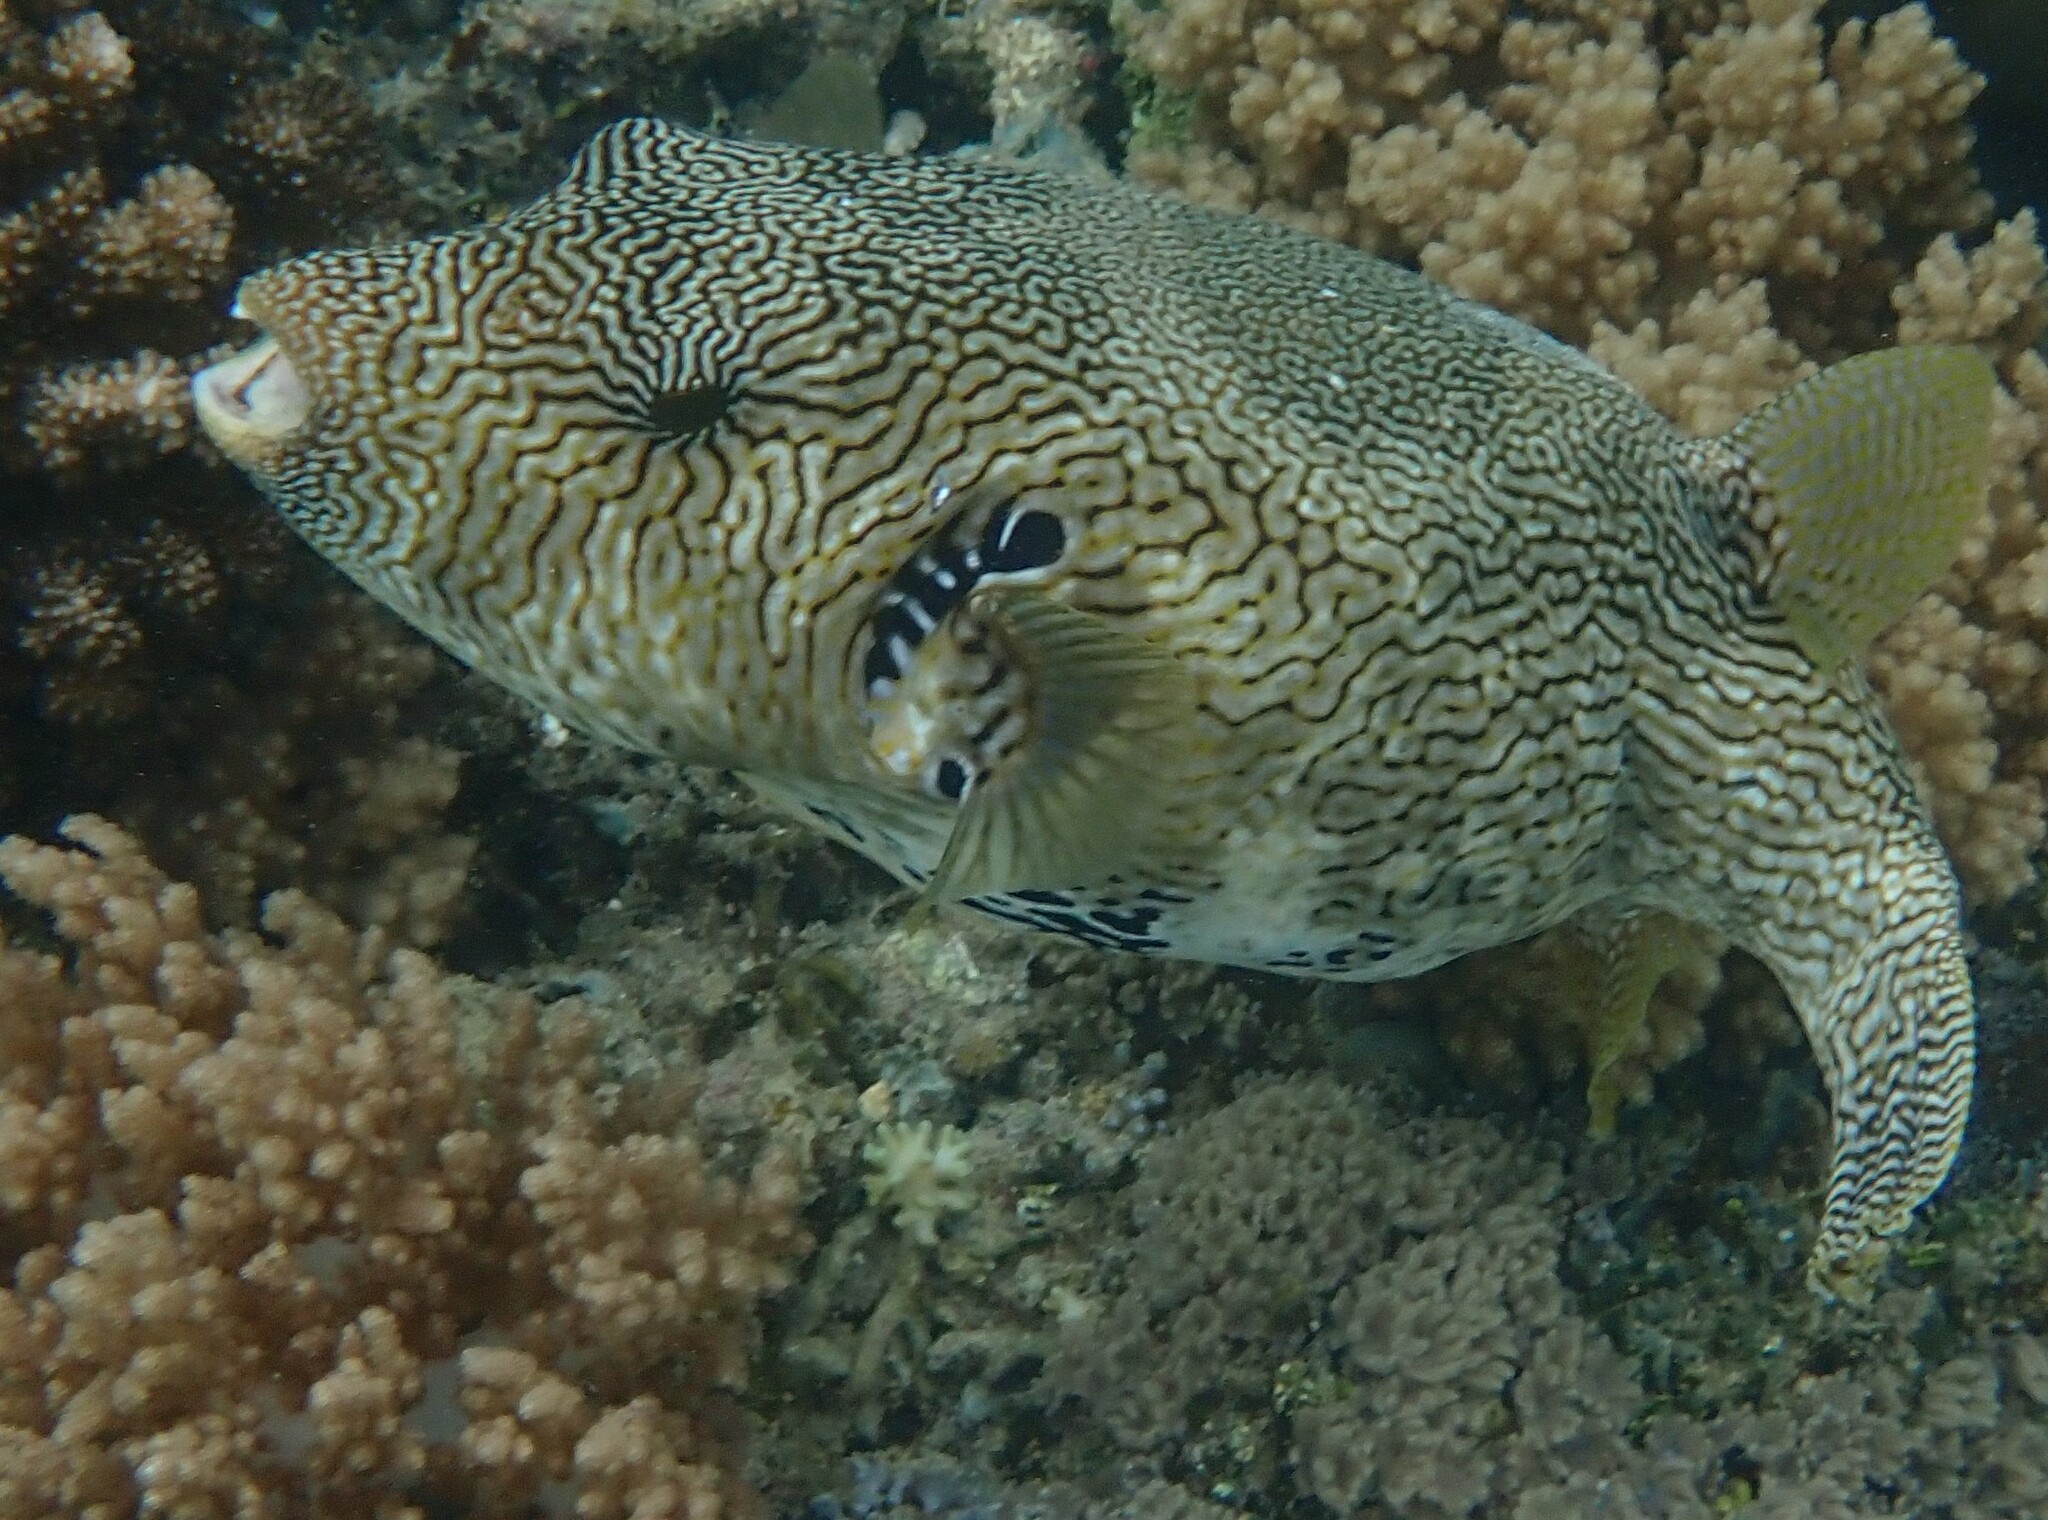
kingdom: Animalia
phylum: Chordata
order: Tetraodontiformes
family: Tetraodontidae
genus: Arothron
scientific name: Arothron mappa
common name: Map blaasop
